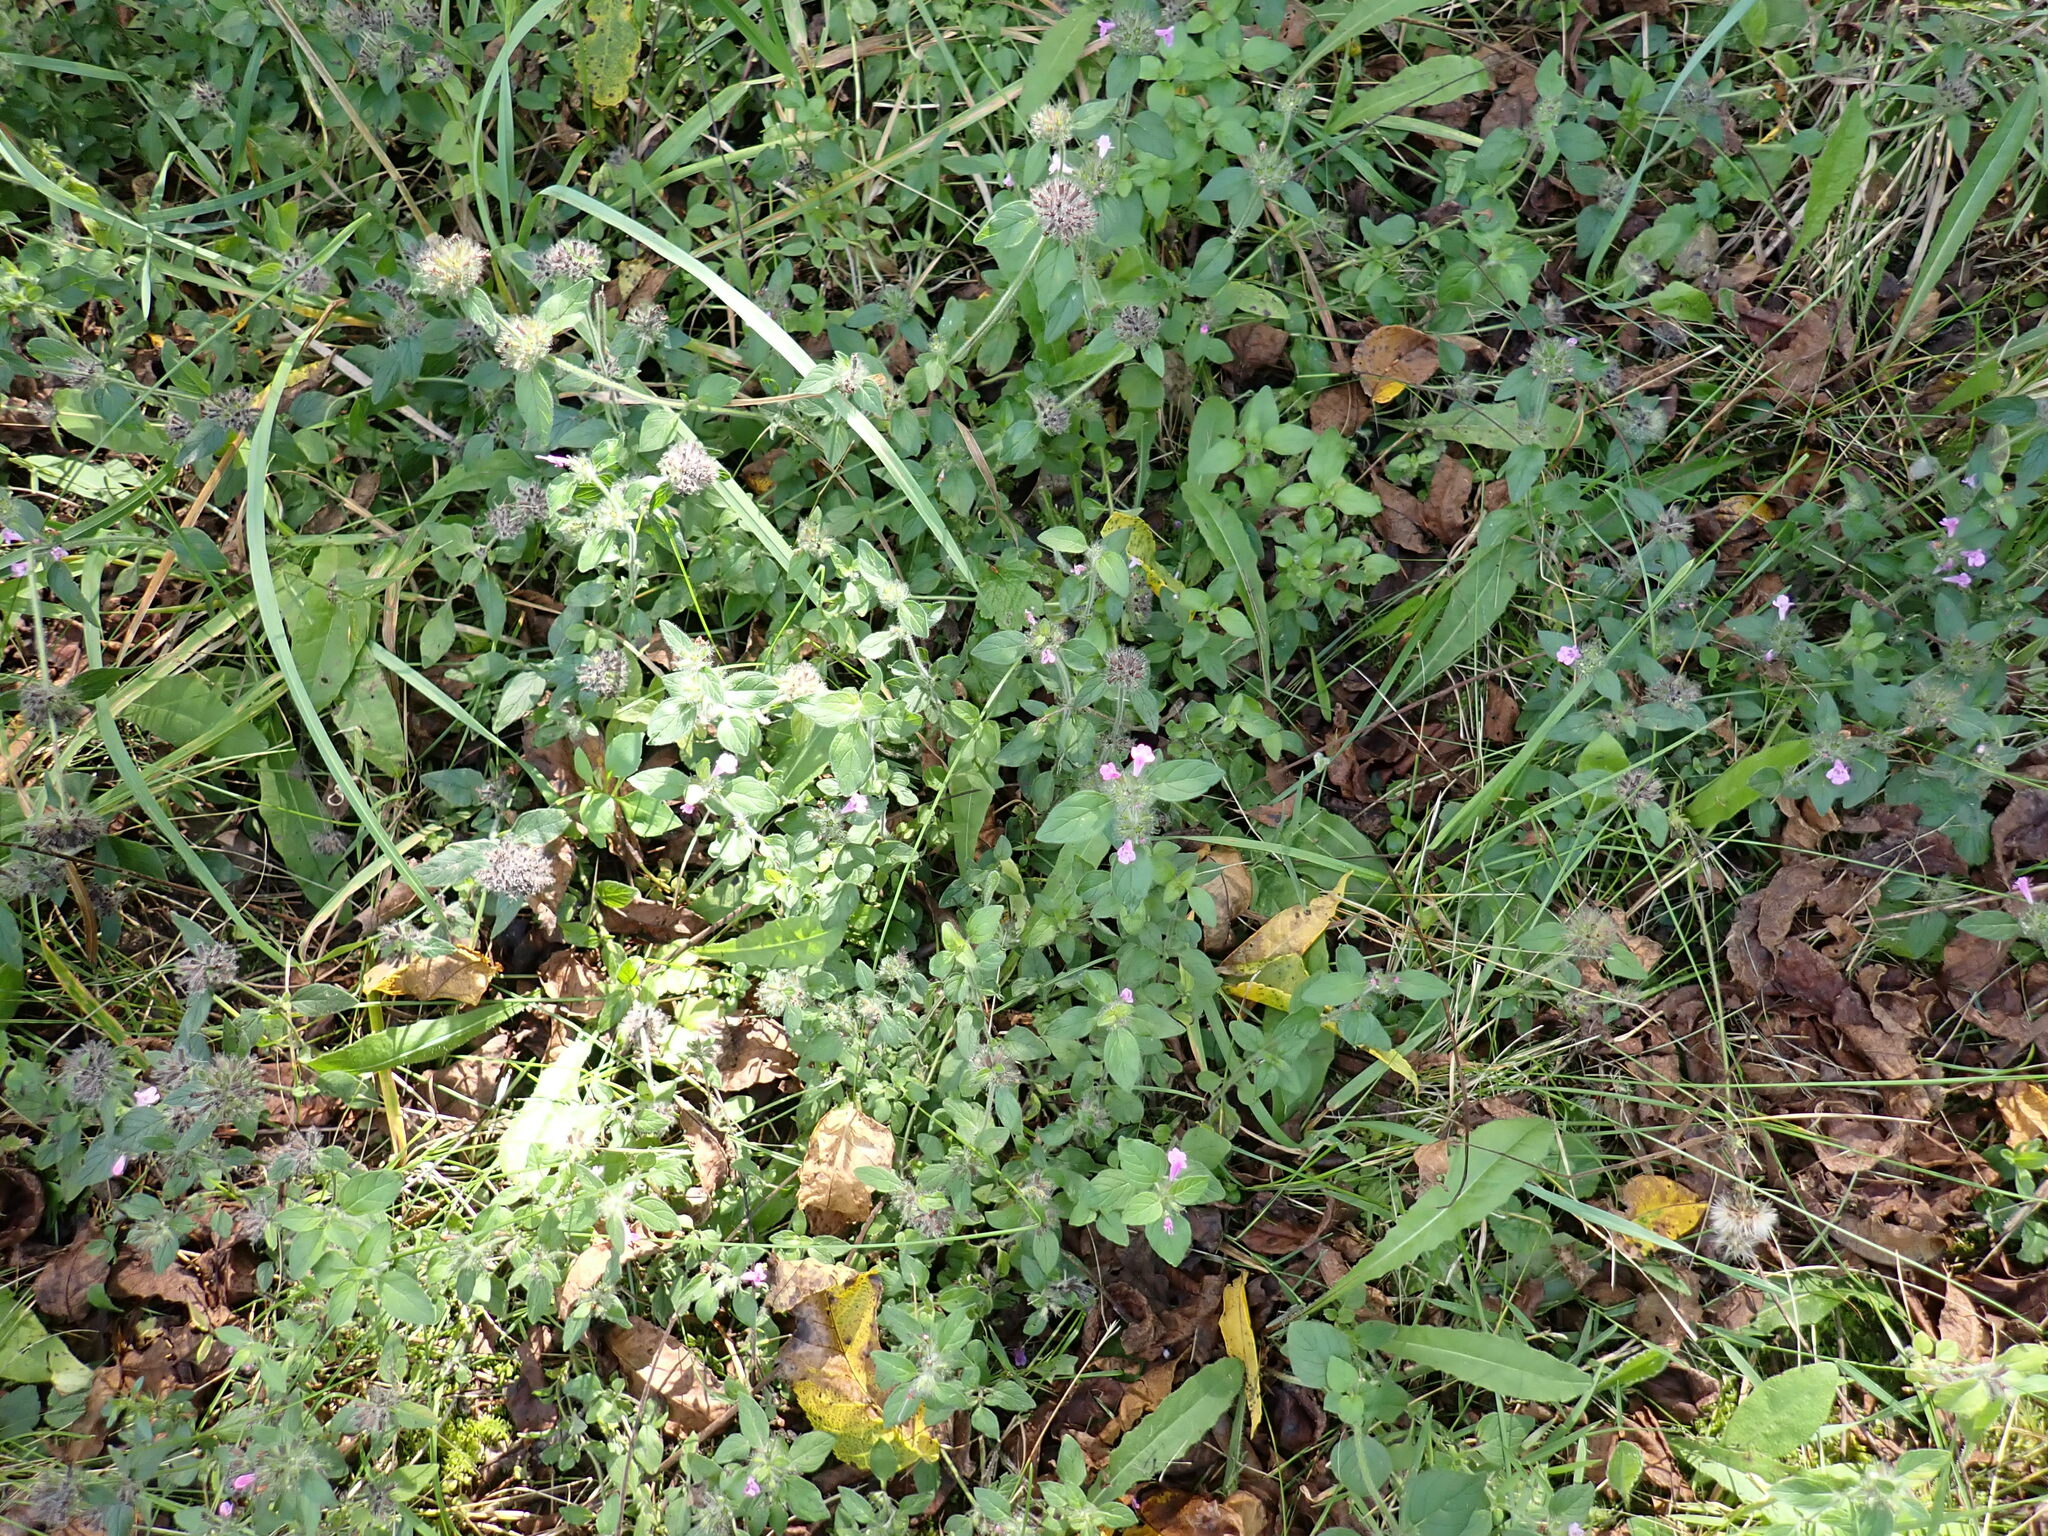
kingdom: Plantae
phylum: Tracheophyta
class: Magnoliopsida
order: Lamiales
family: Lamiaceae
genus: Clinopodium
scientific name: Clinopodium vulgare
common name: Wild basil
